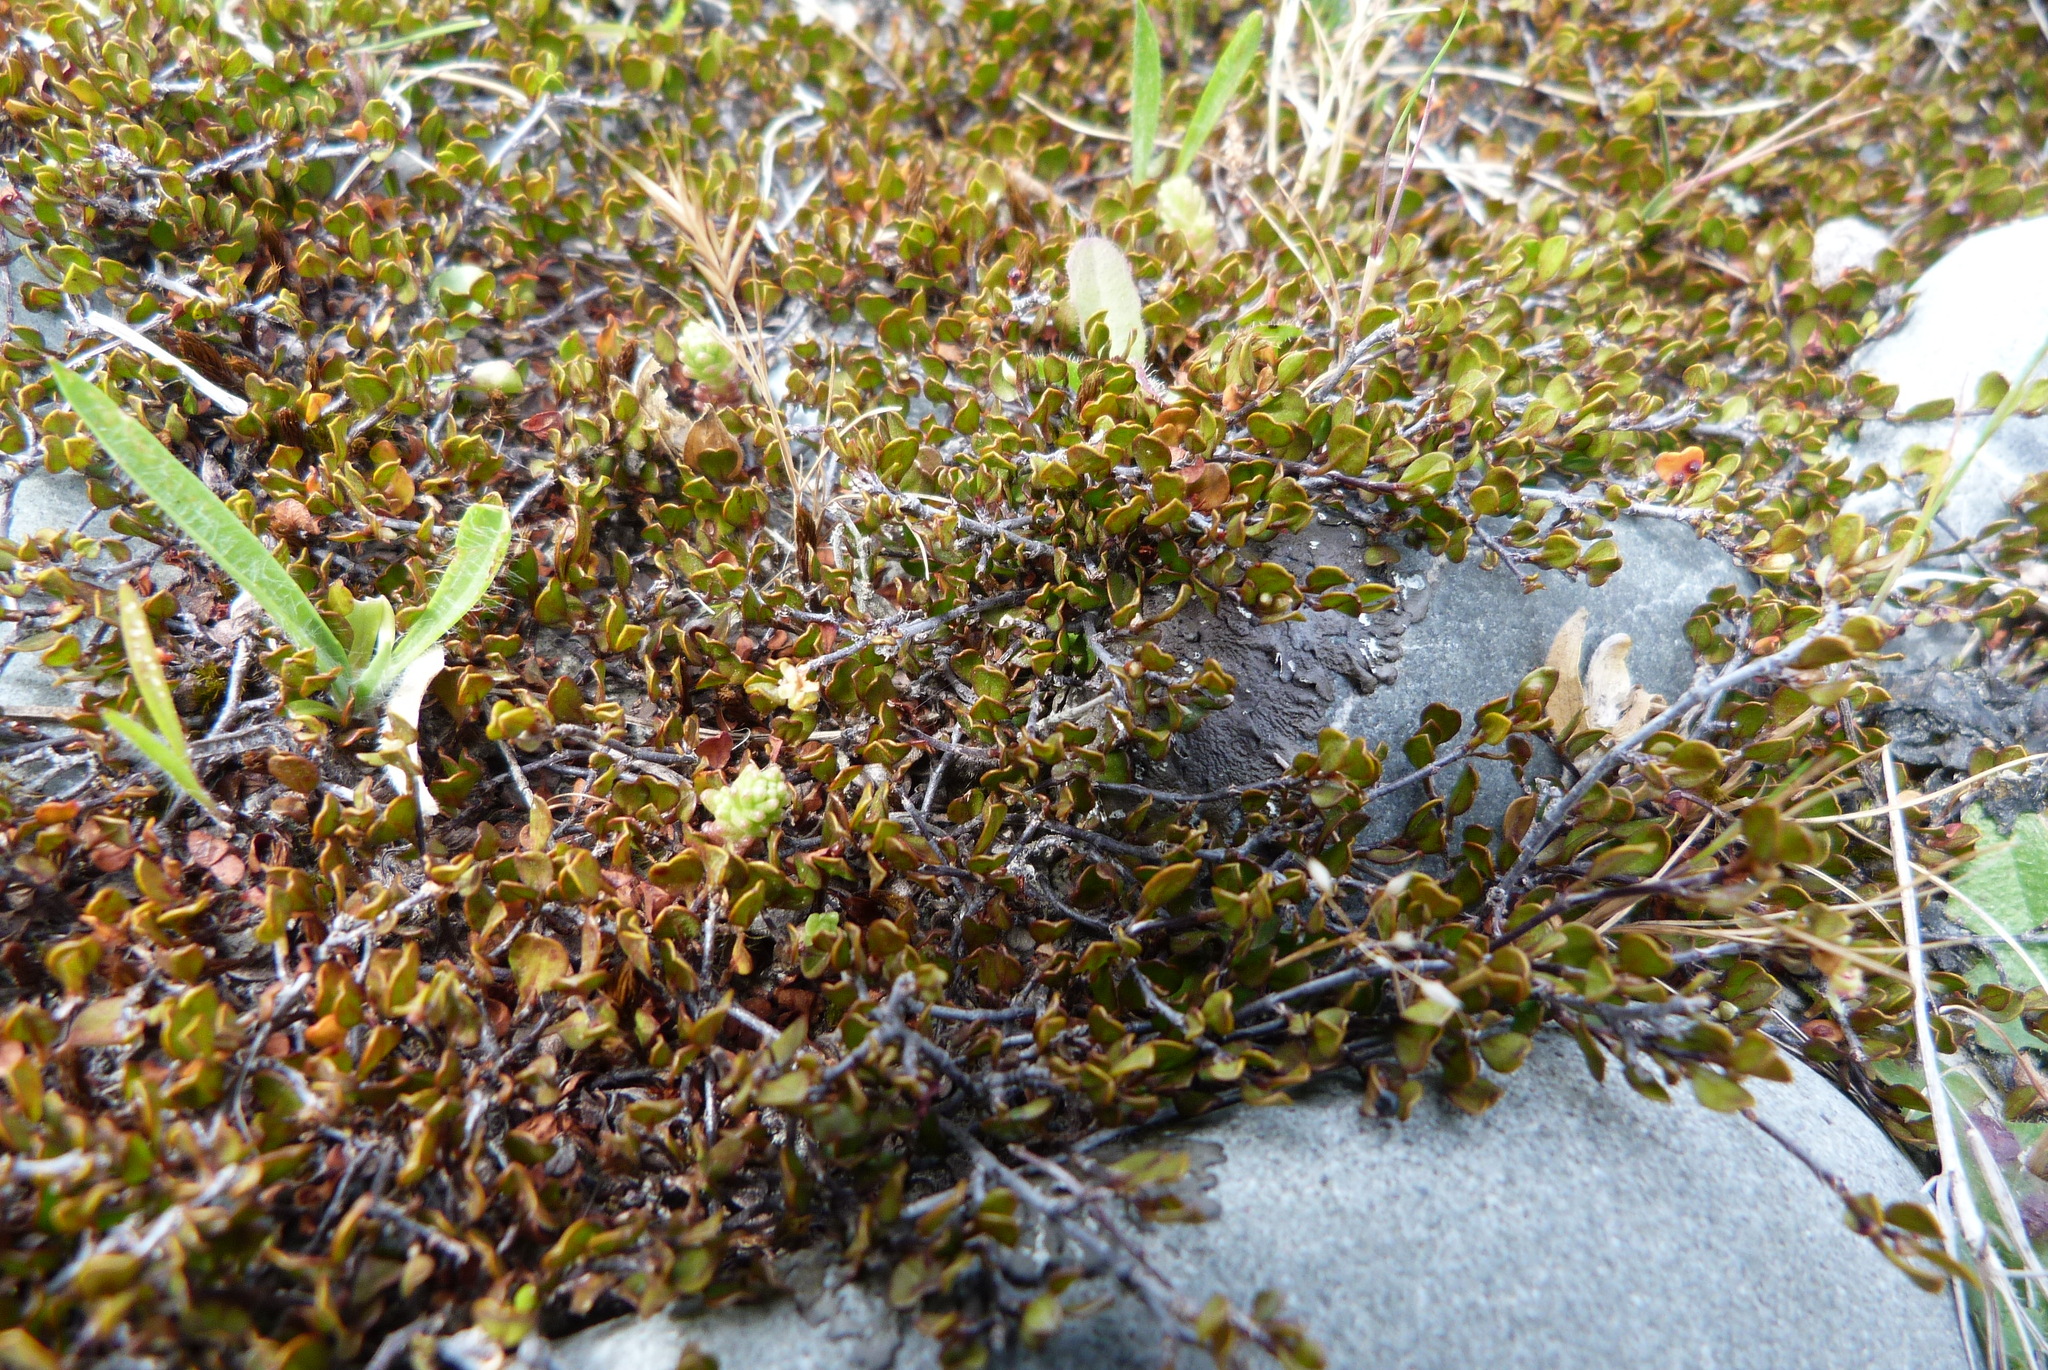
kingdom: Plantae
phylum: Tracheophyta
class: Magnoliopsida
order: Caryophyllales
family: Polygonaceae
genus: Muehlenbeckia
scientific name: Muehlenbeckia axillaris
